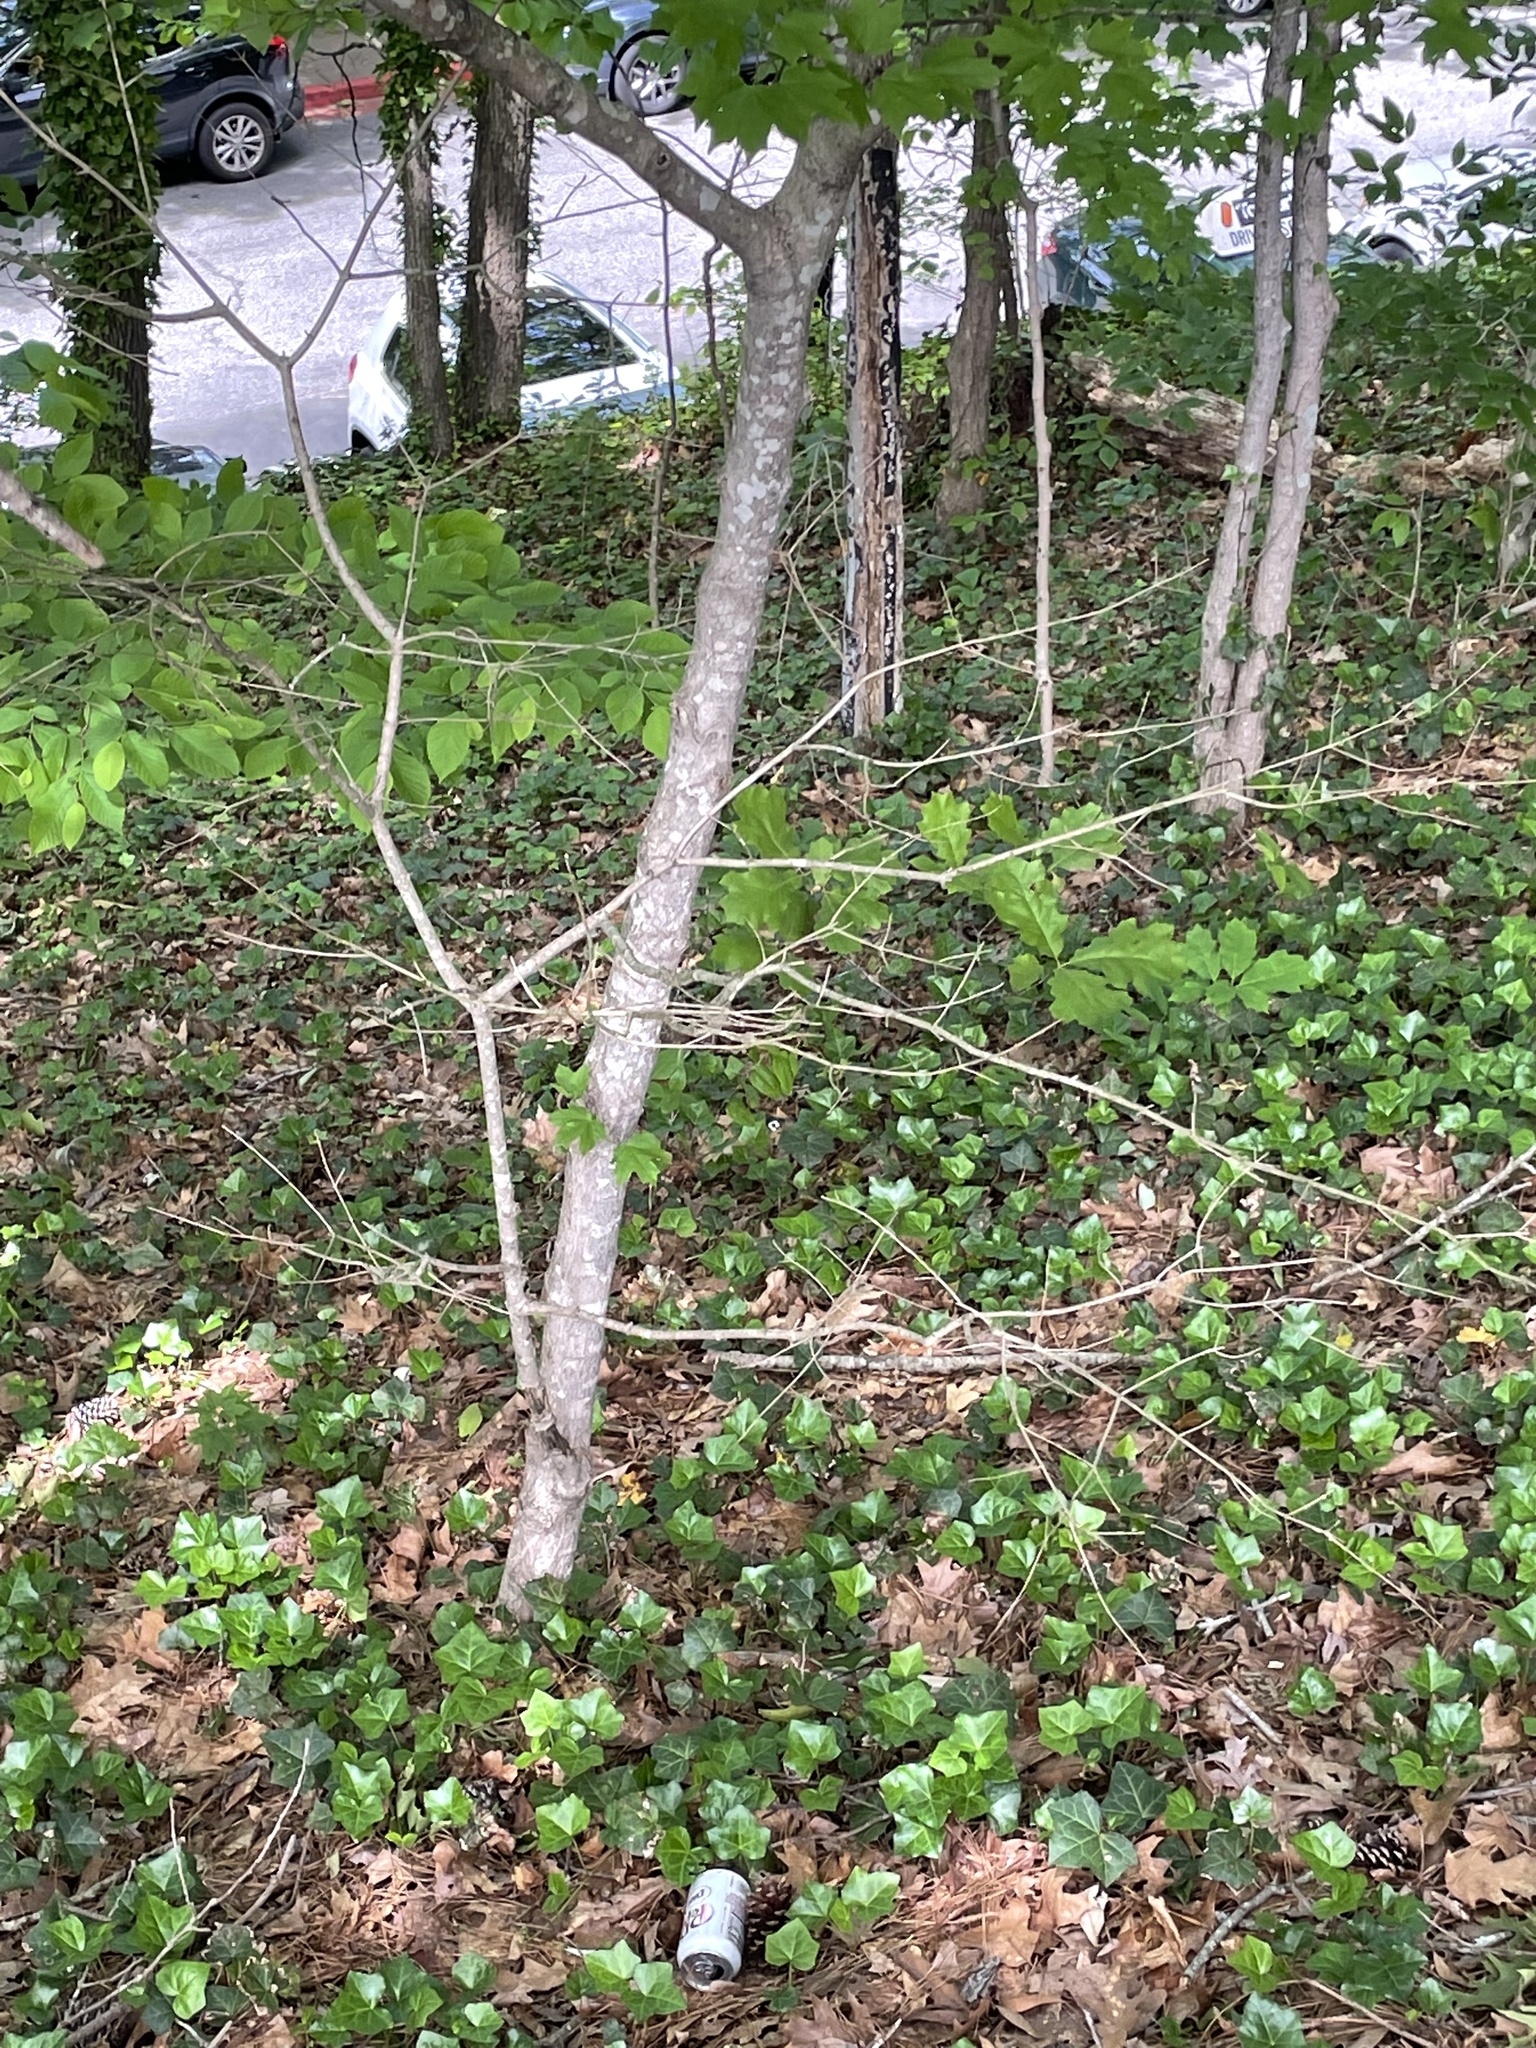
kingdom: Plantae
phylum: Tracheophyta
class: Magnoliopsida
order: Sapindales
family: Sapindaceae
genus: Acer
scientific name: Acer leucoderme
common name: Chalk maple
